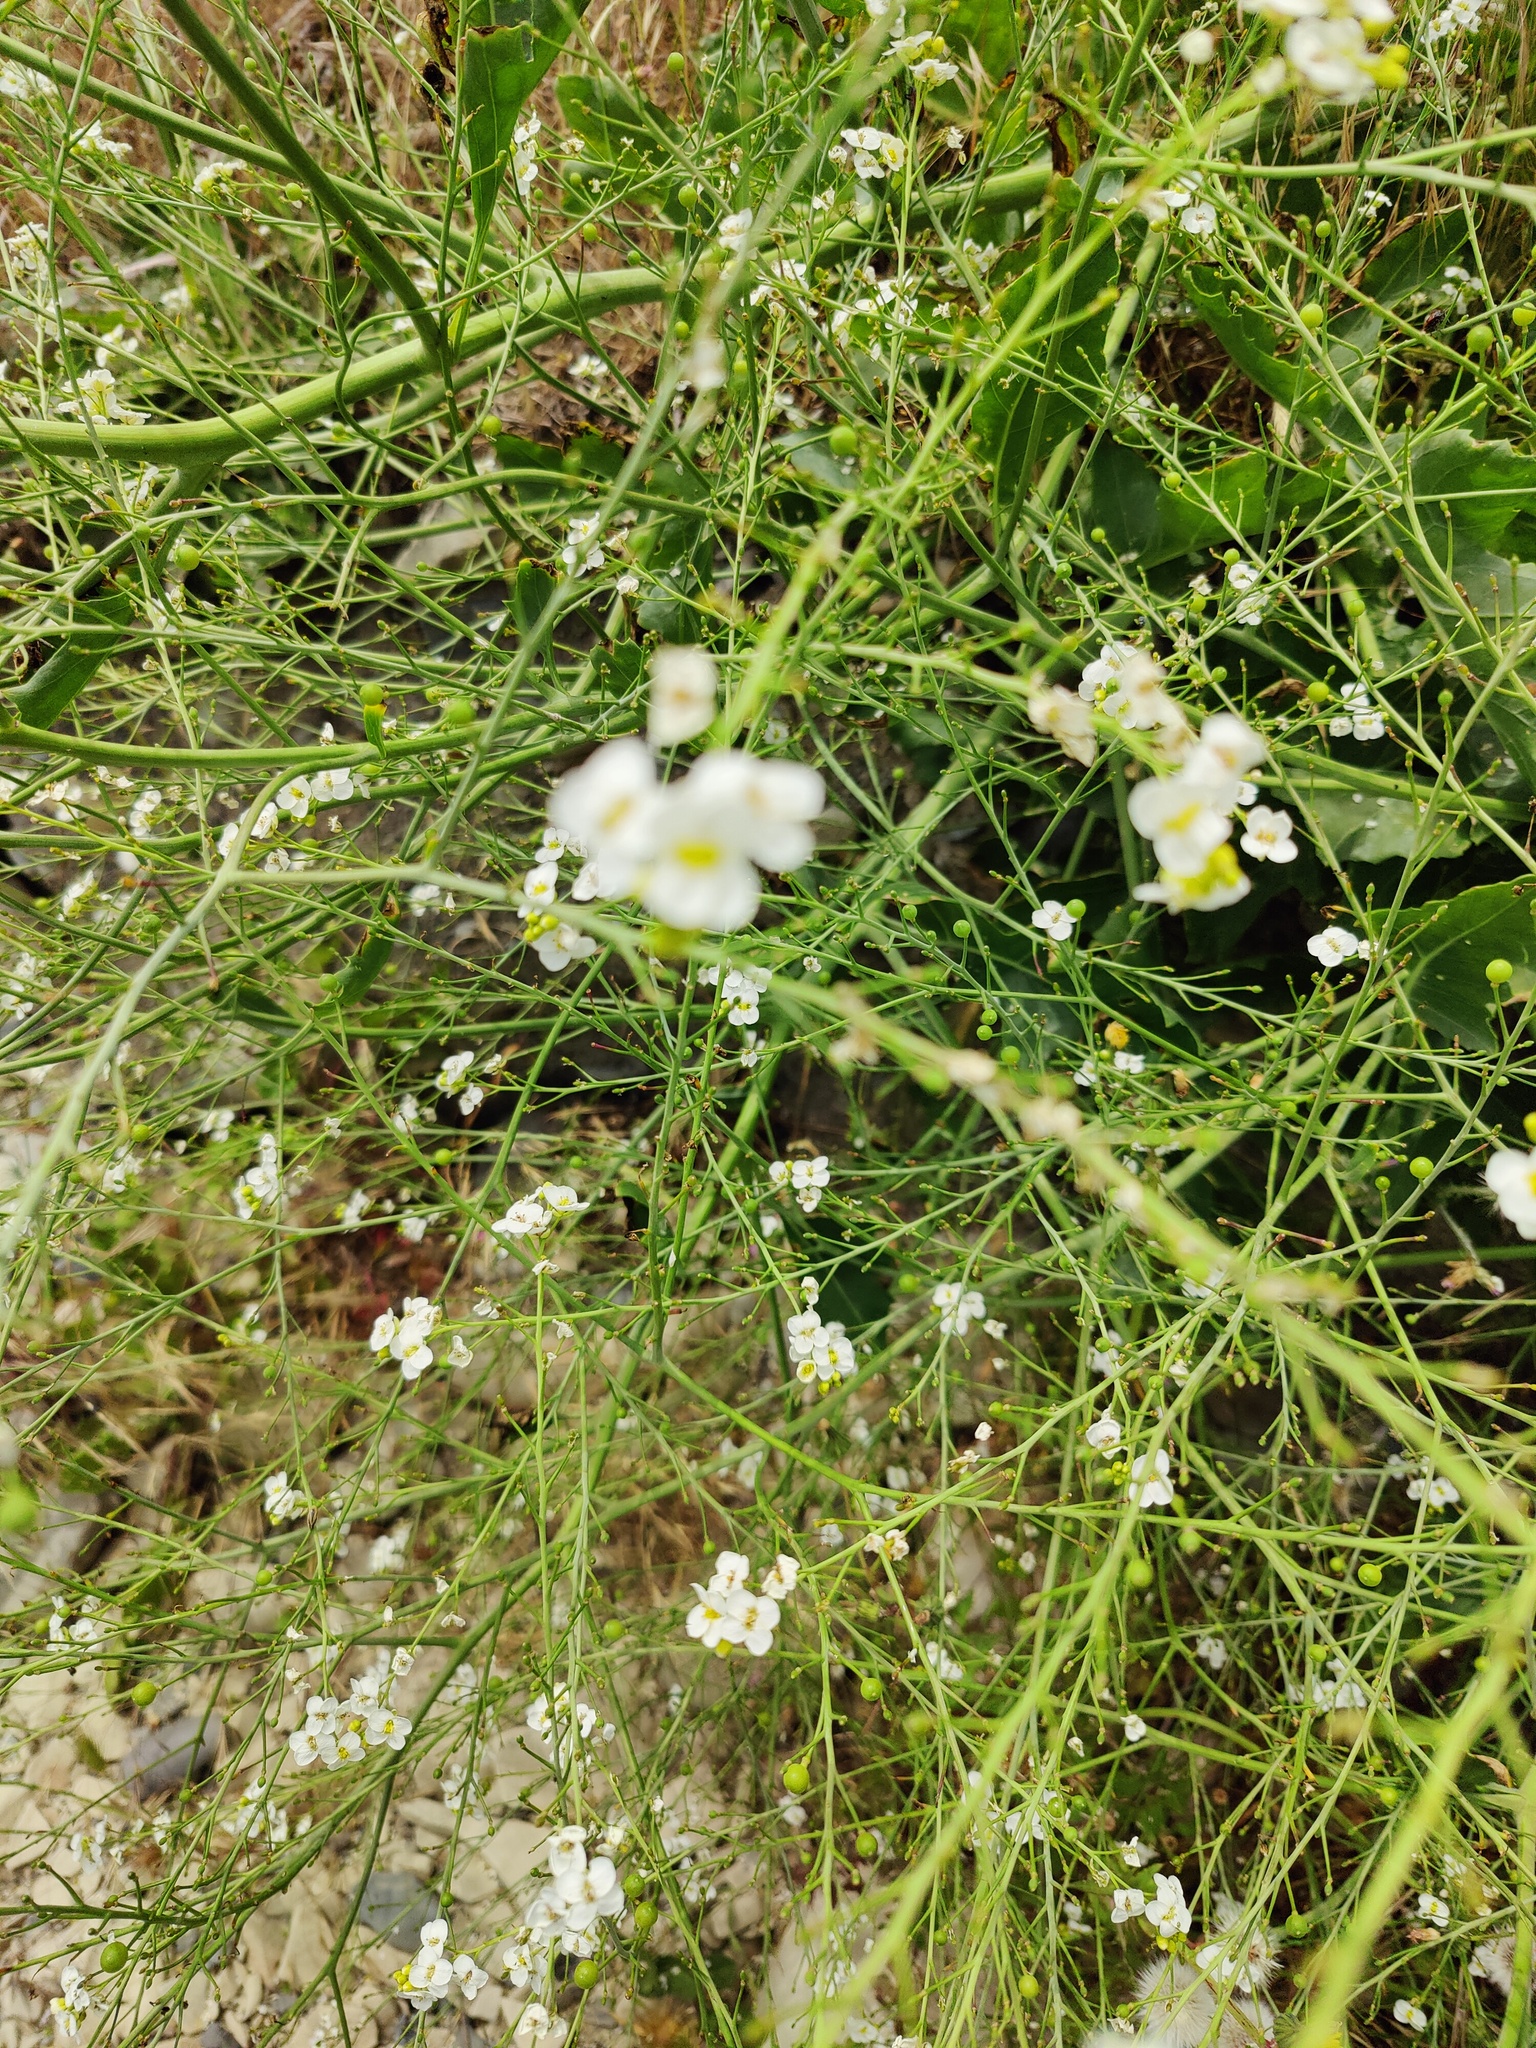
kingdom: Plantae
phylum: Tracheophyta
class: Magnoliopsida
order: Brassicales
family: Brassicaceae
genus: Crambe
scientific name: Crambe koktebelica
